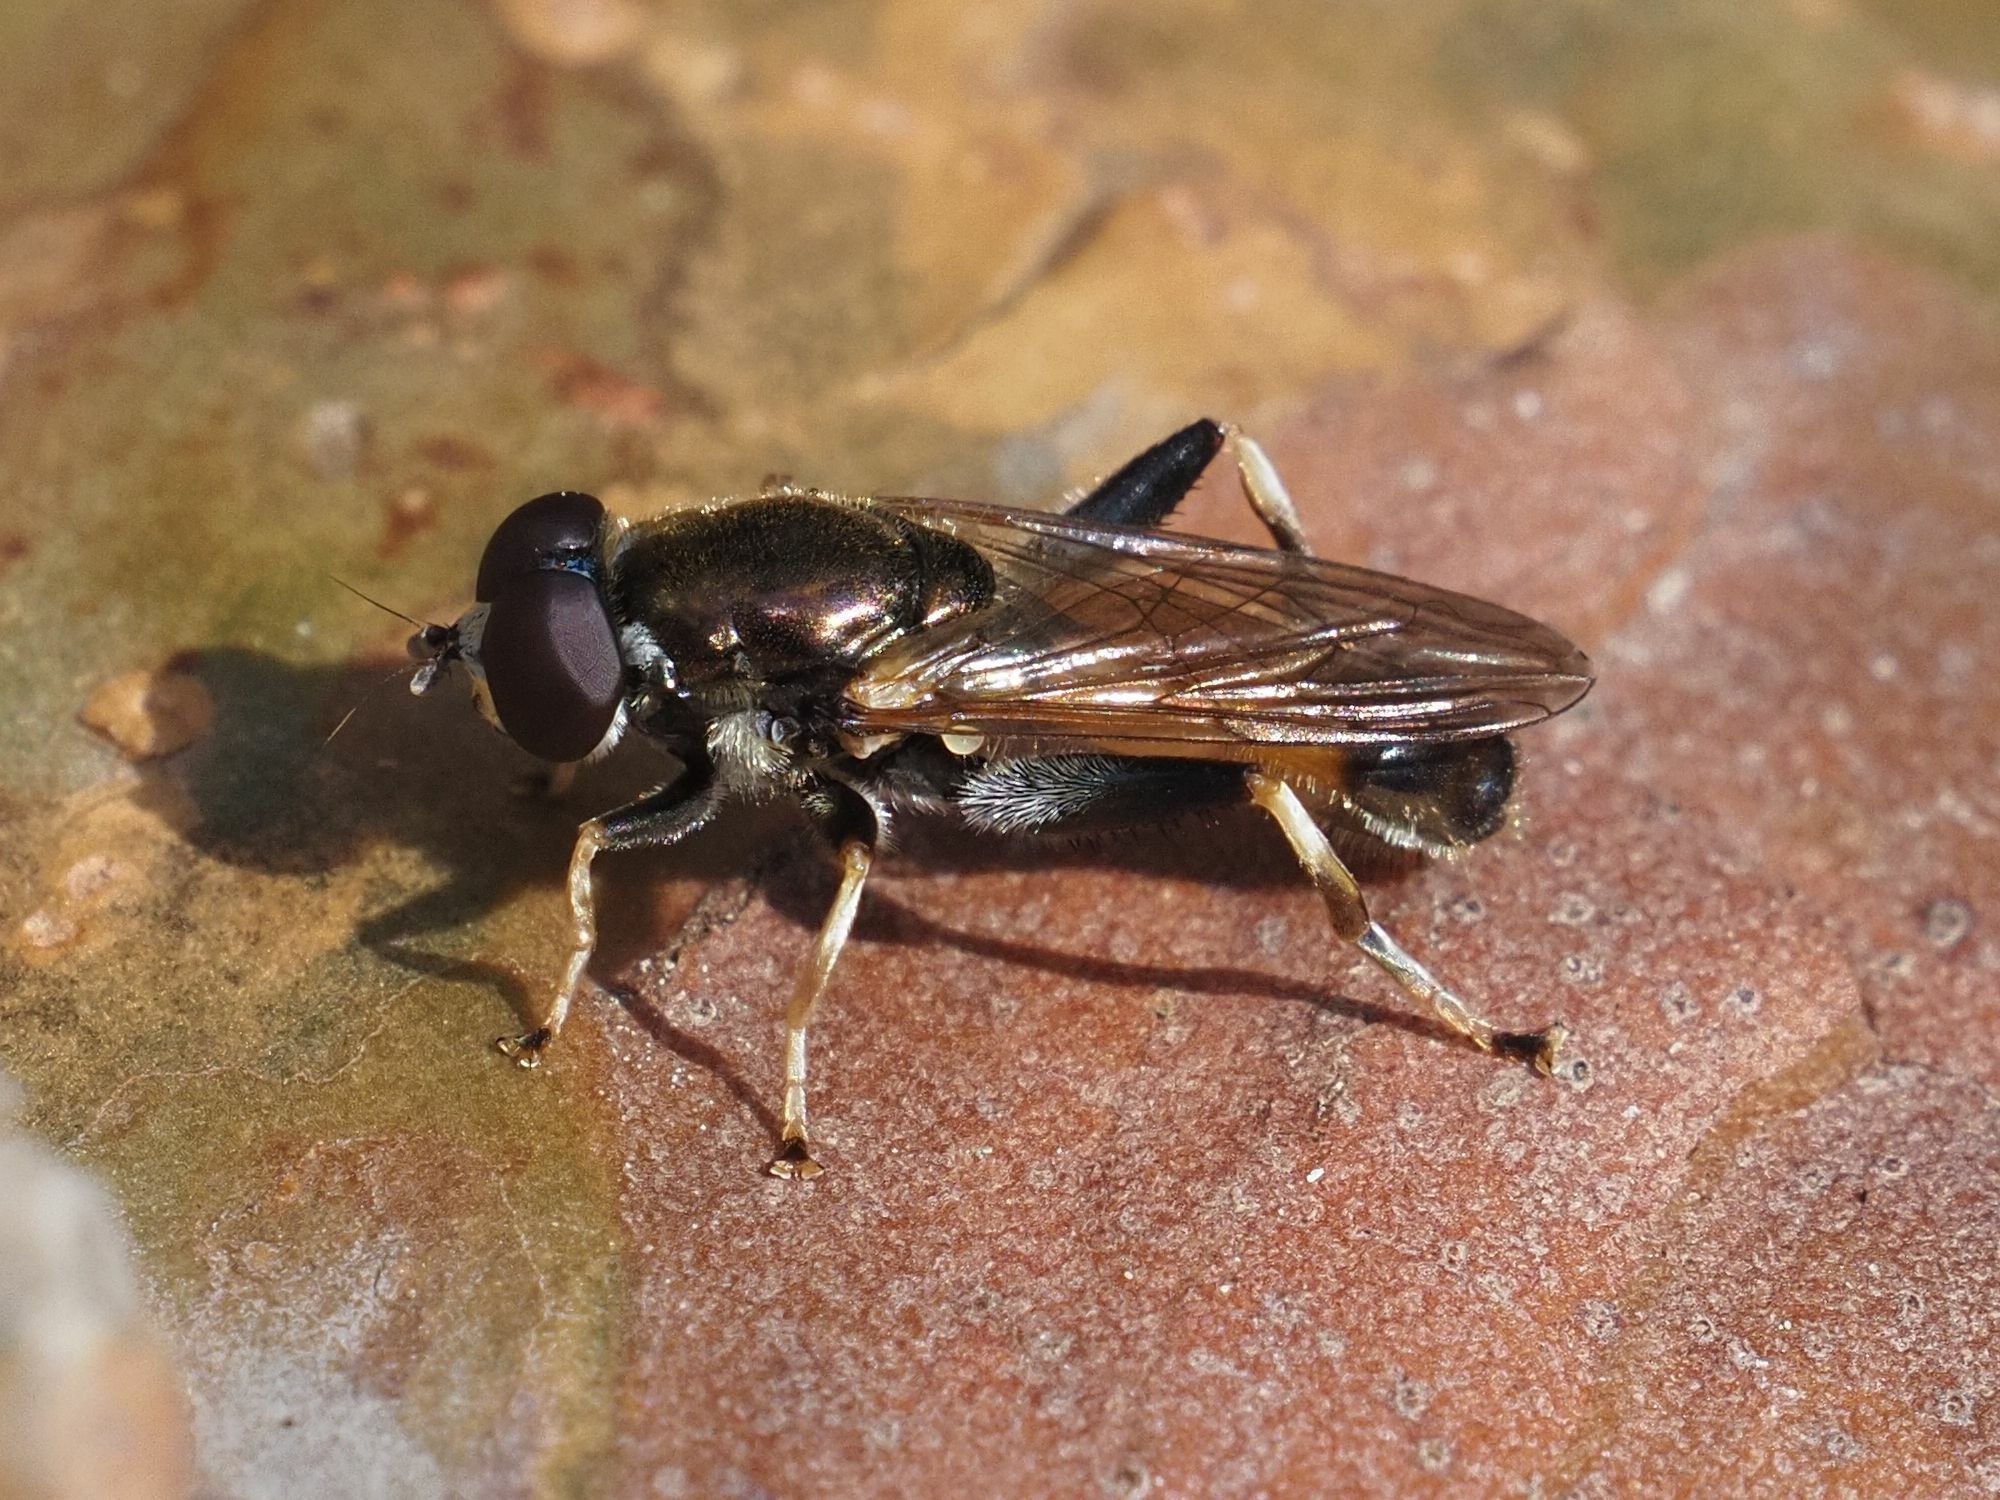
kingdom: Animalia
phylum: Arthropoda
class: Insecta
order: Diptera
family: Syrphidae
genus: Xylota
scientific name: Xylota segnis
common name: Brown-toed forest fly
